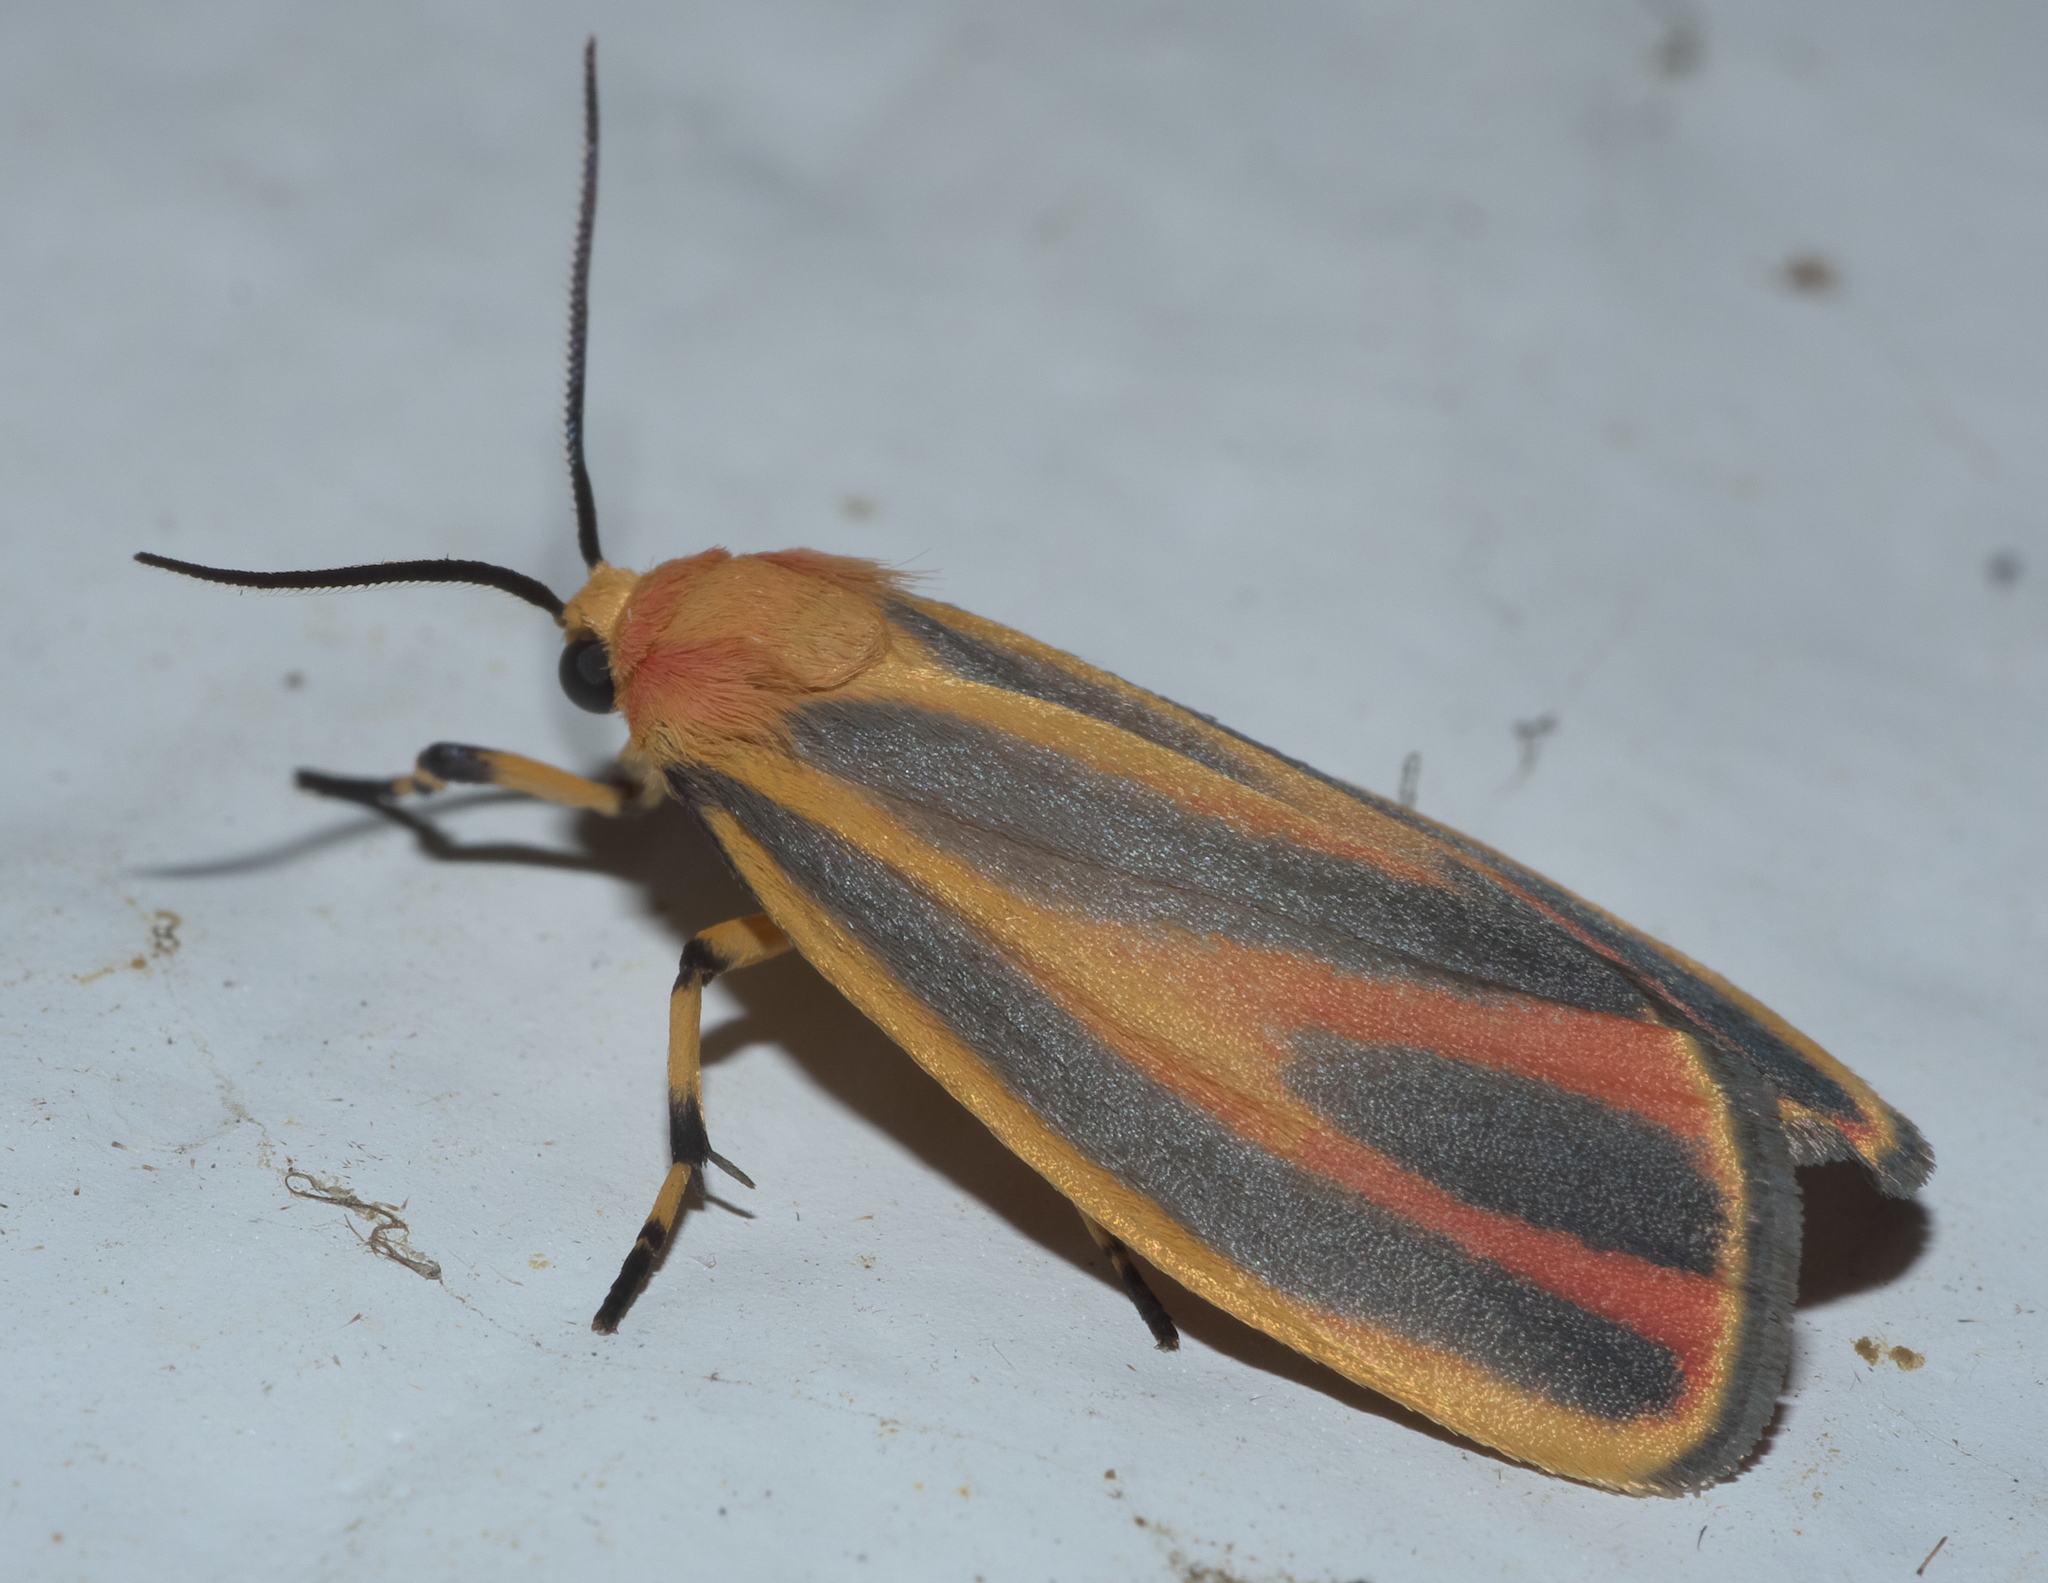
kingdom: Animalia
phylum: Arthropoda
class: Insecta
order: Lepidoptera
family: Erebidae
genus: Hypoprepia
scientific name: Hypoprepia fucosa
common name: Painted lichen moth
